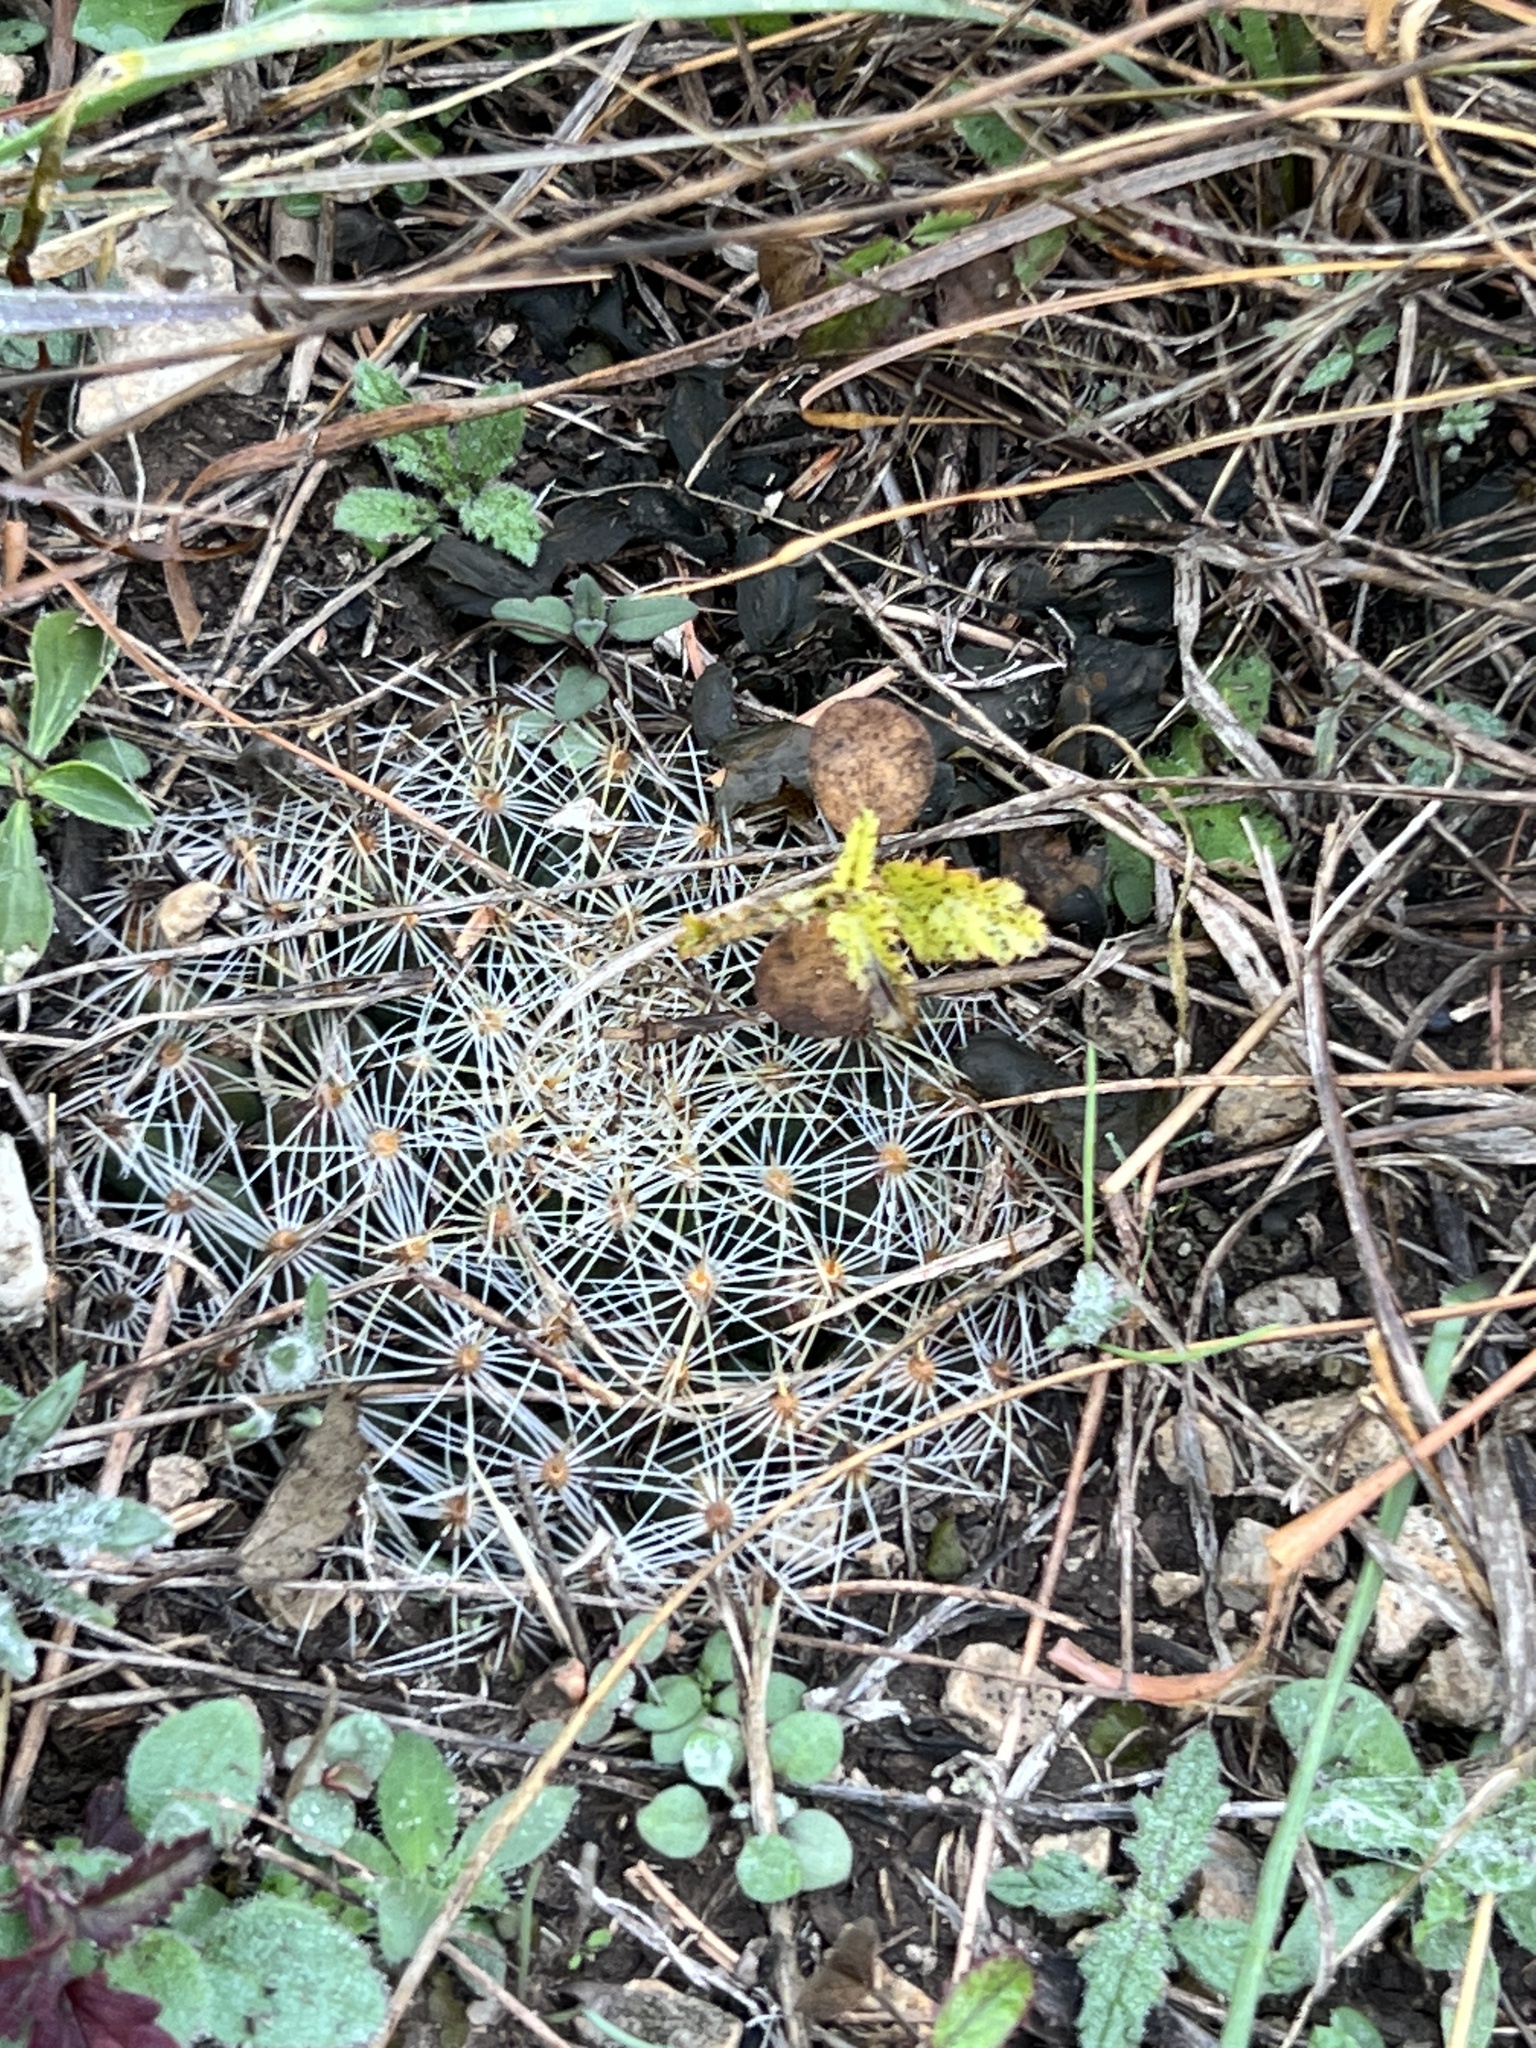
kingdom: Plantae
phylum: Tracheophyta
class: Magnoliopsida
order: Caryophyllales
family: Cactaceae
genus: Mammillaria
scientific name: Mammillaria heyderi
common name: Little nipple cactus
